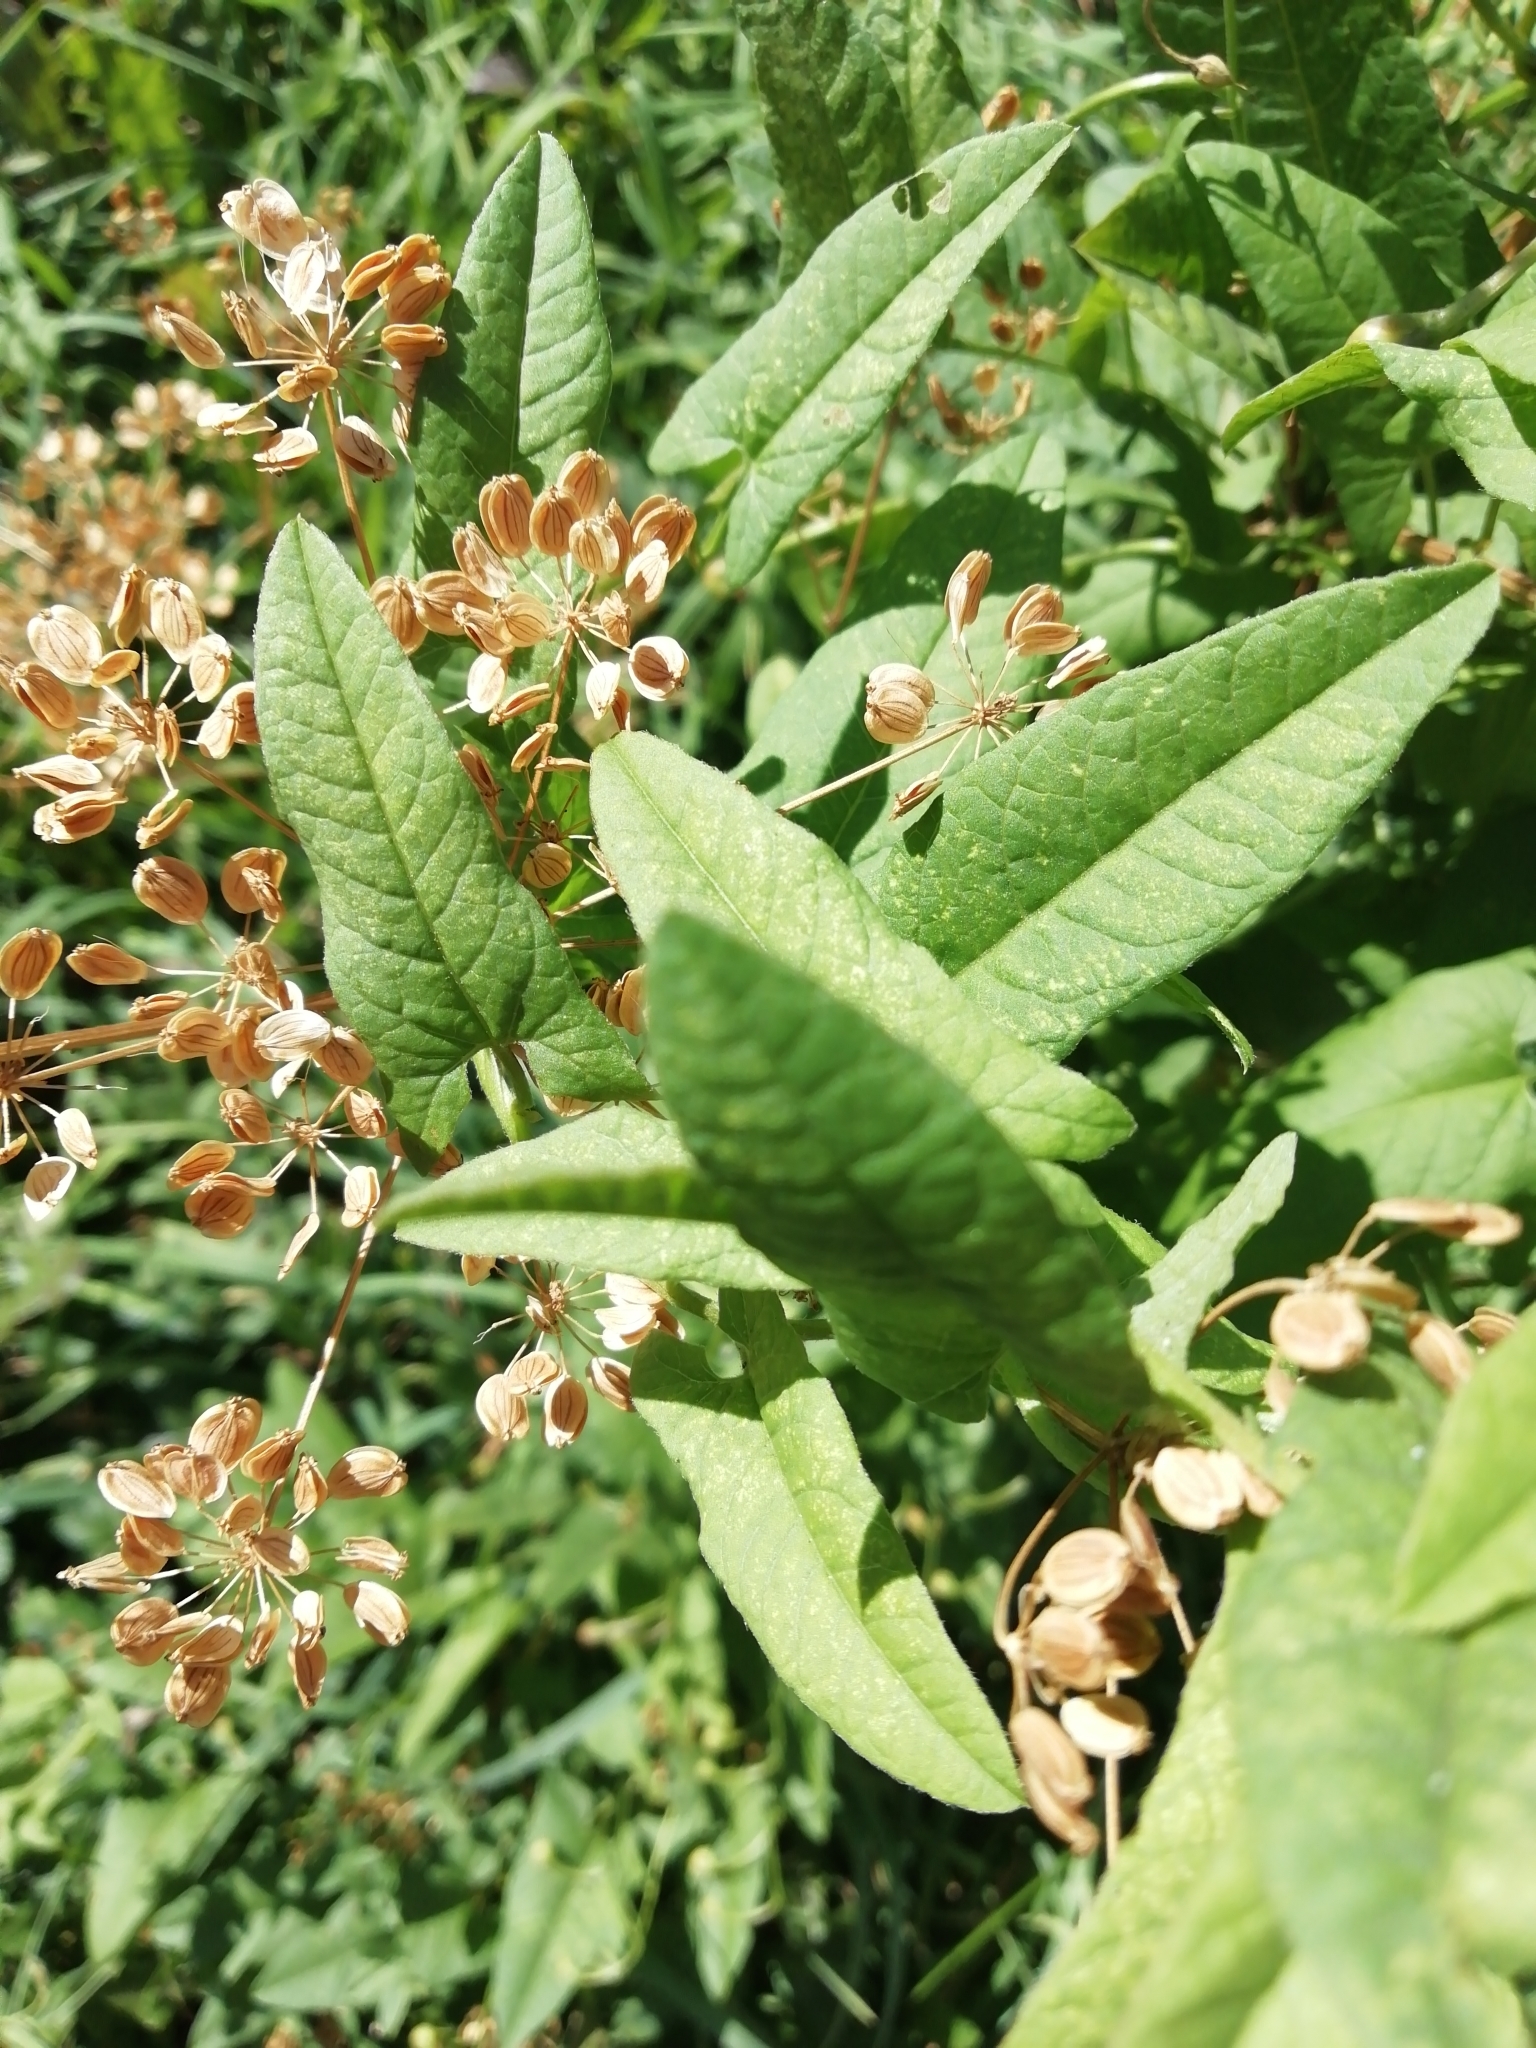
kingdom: Plantae
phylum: Tracheophyta
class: Magnoliopsida
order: Apiales
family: Apiaceae
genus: Heracleum
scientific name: Heracleum sphondylium
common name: Hogweed
